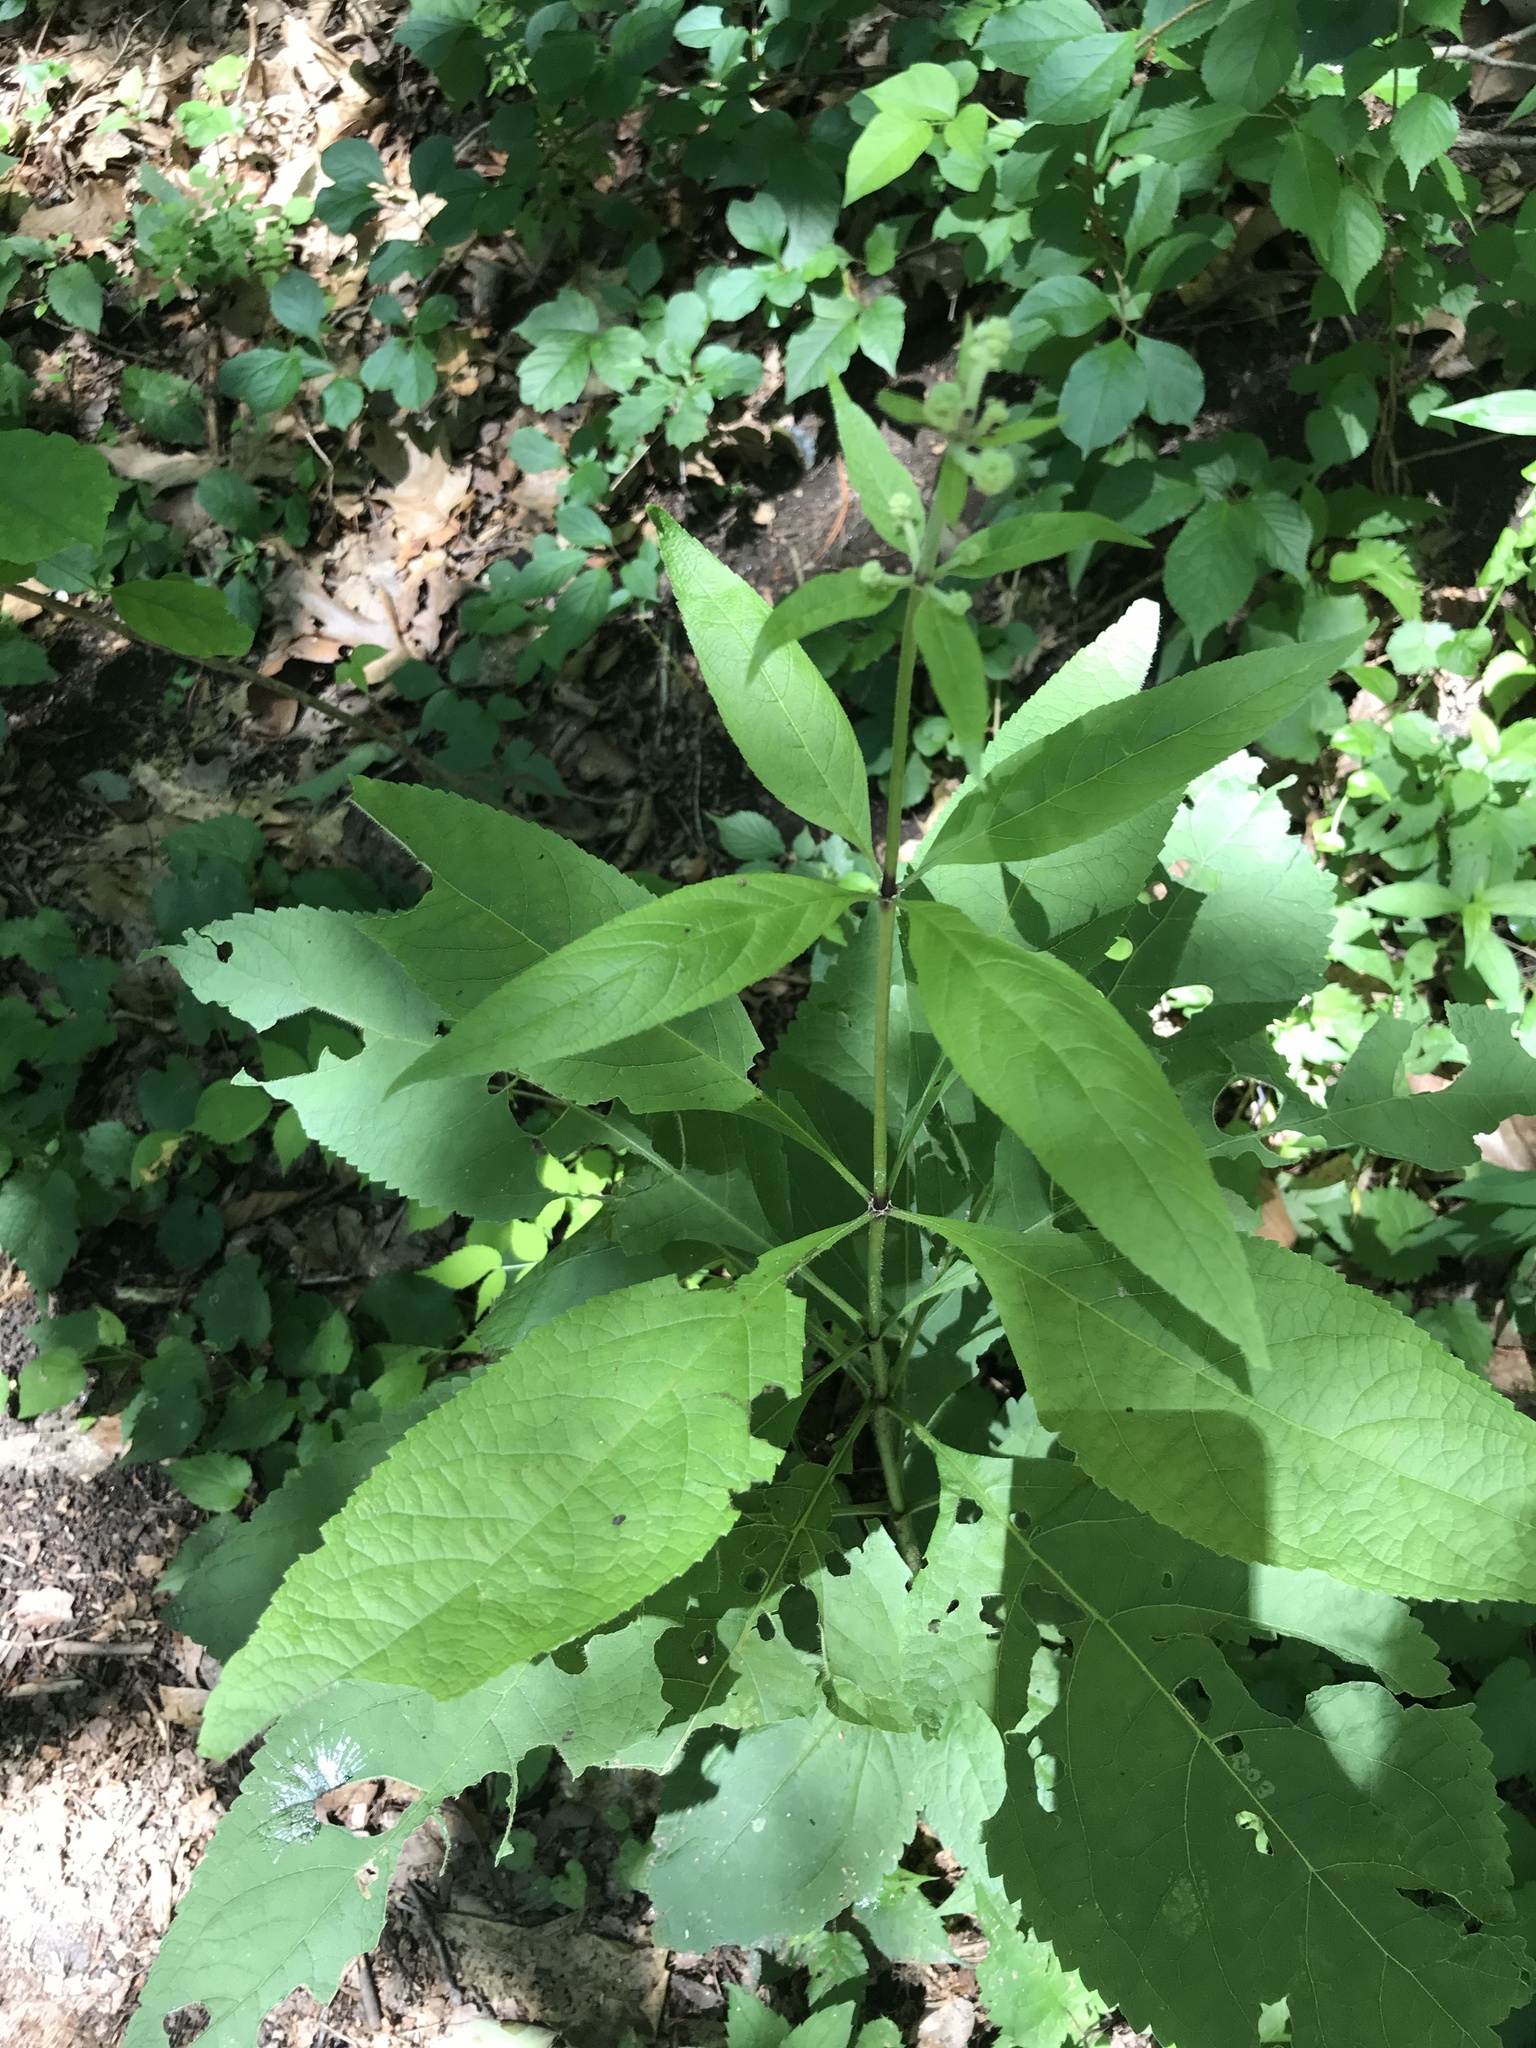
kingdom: Plantae
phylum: Tracheophyta
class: Magnoliopsida
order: Asterales
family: Asteraceae
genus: Eutrochium
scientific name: Eutrochium purpureum
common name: Gravelroot
